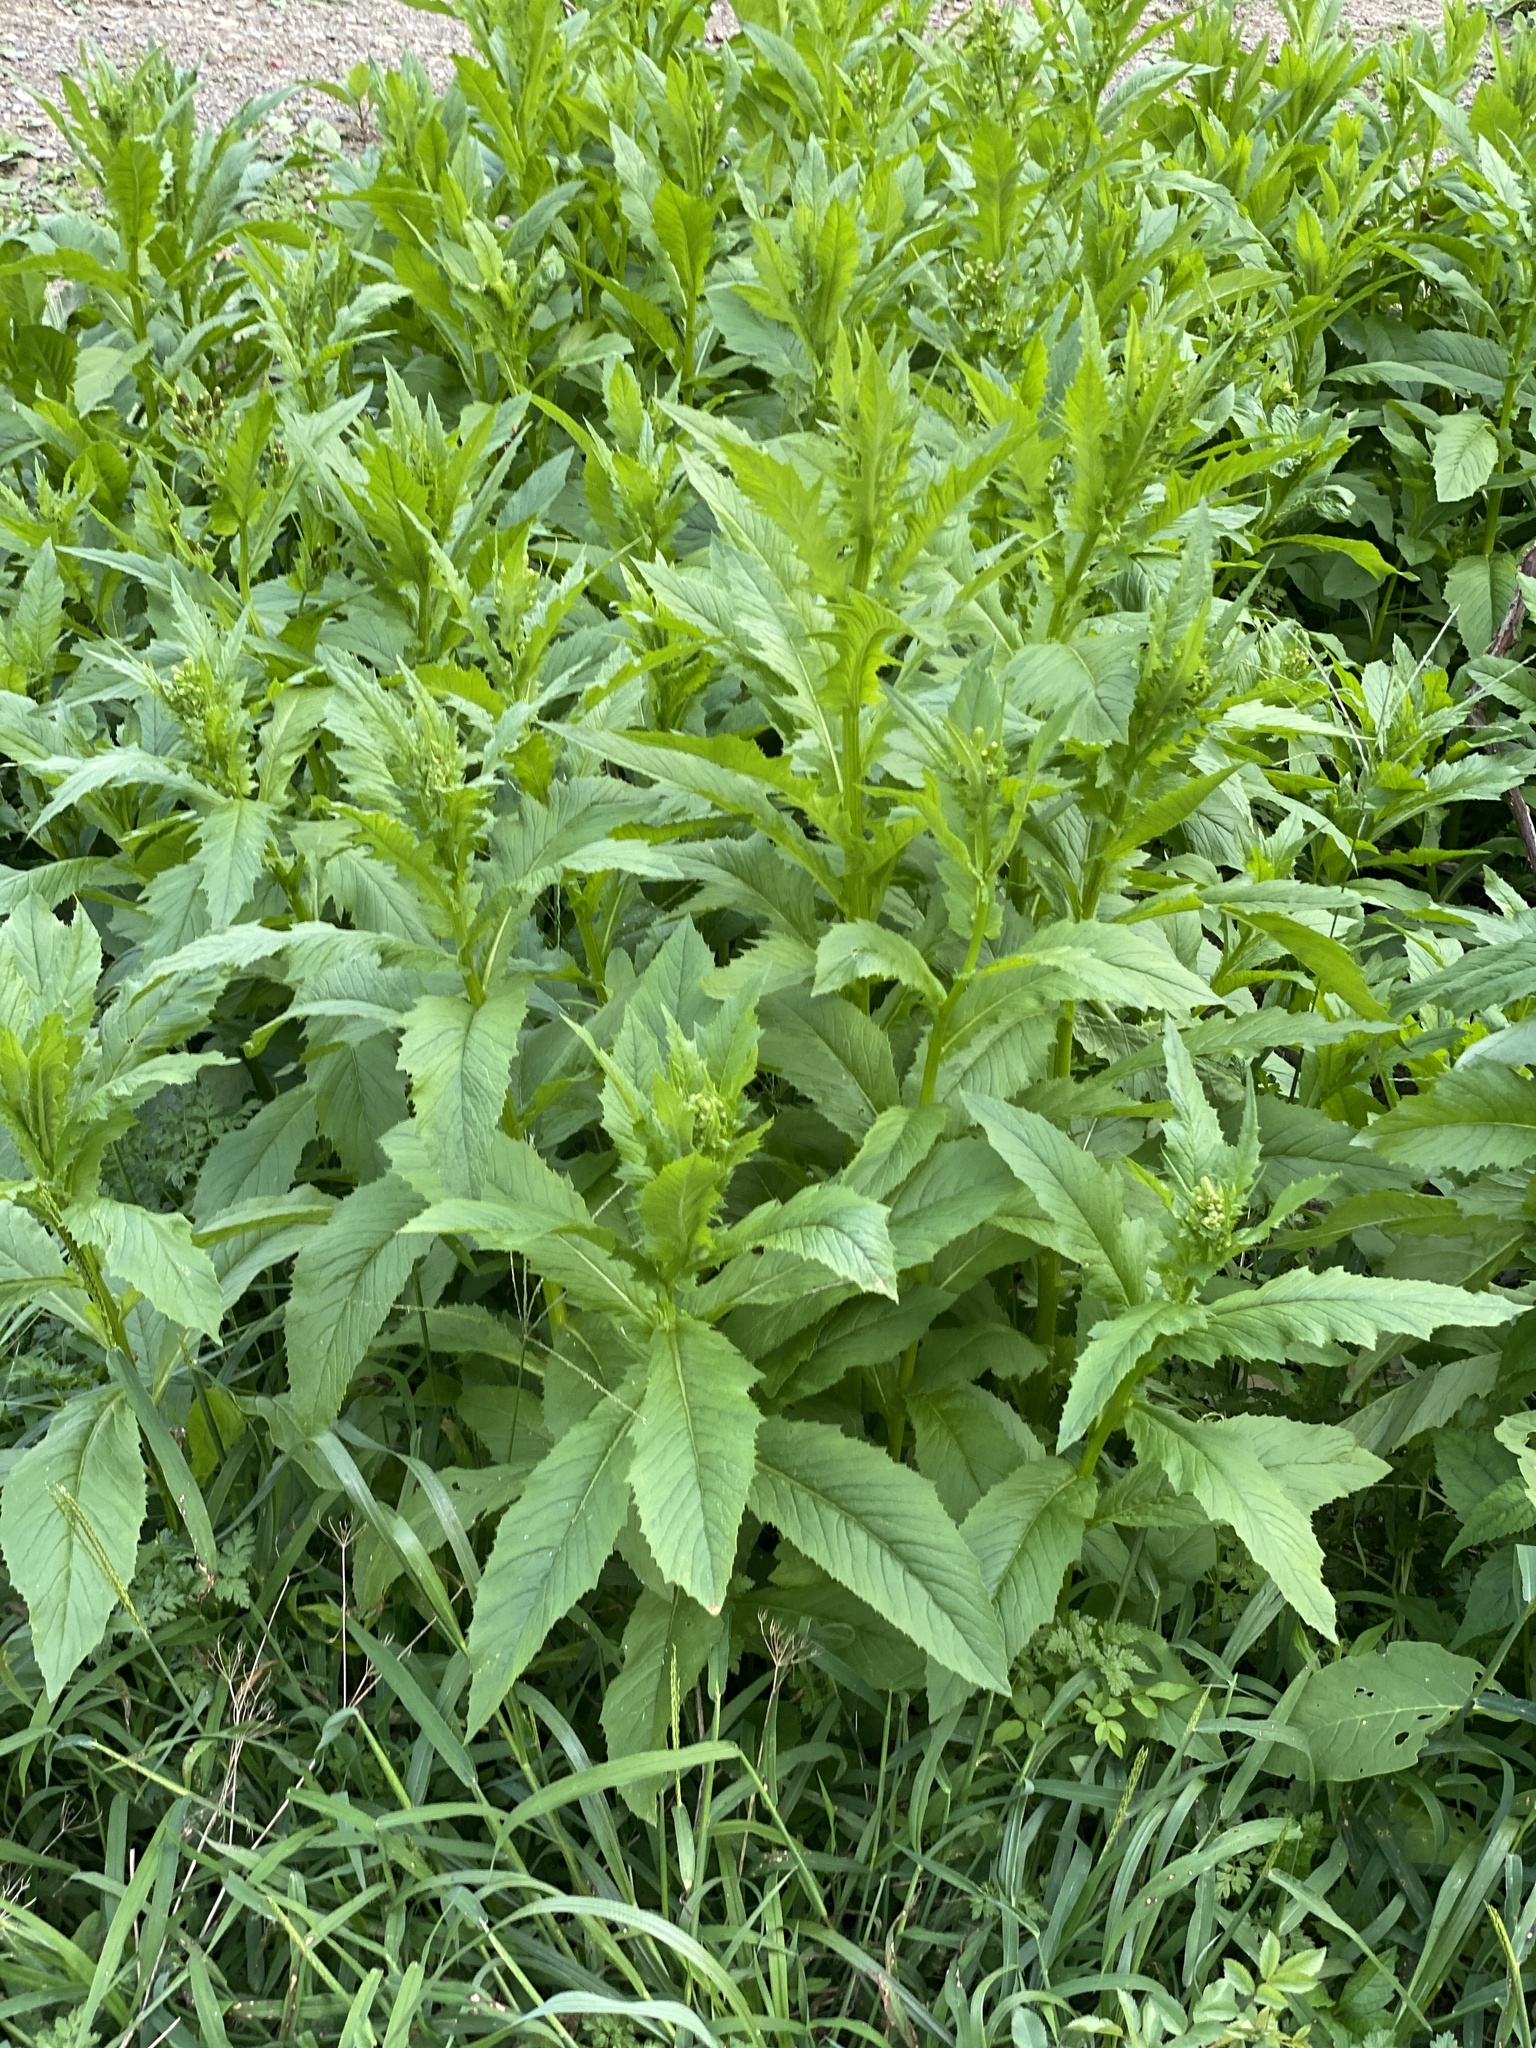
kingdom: Plantae
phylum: Tracheophyta
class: Magnoliopsida
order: Asterales
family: Asteraceae
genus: Erechtites
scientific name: Erechtites hieraciifolius
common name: American burnweed
